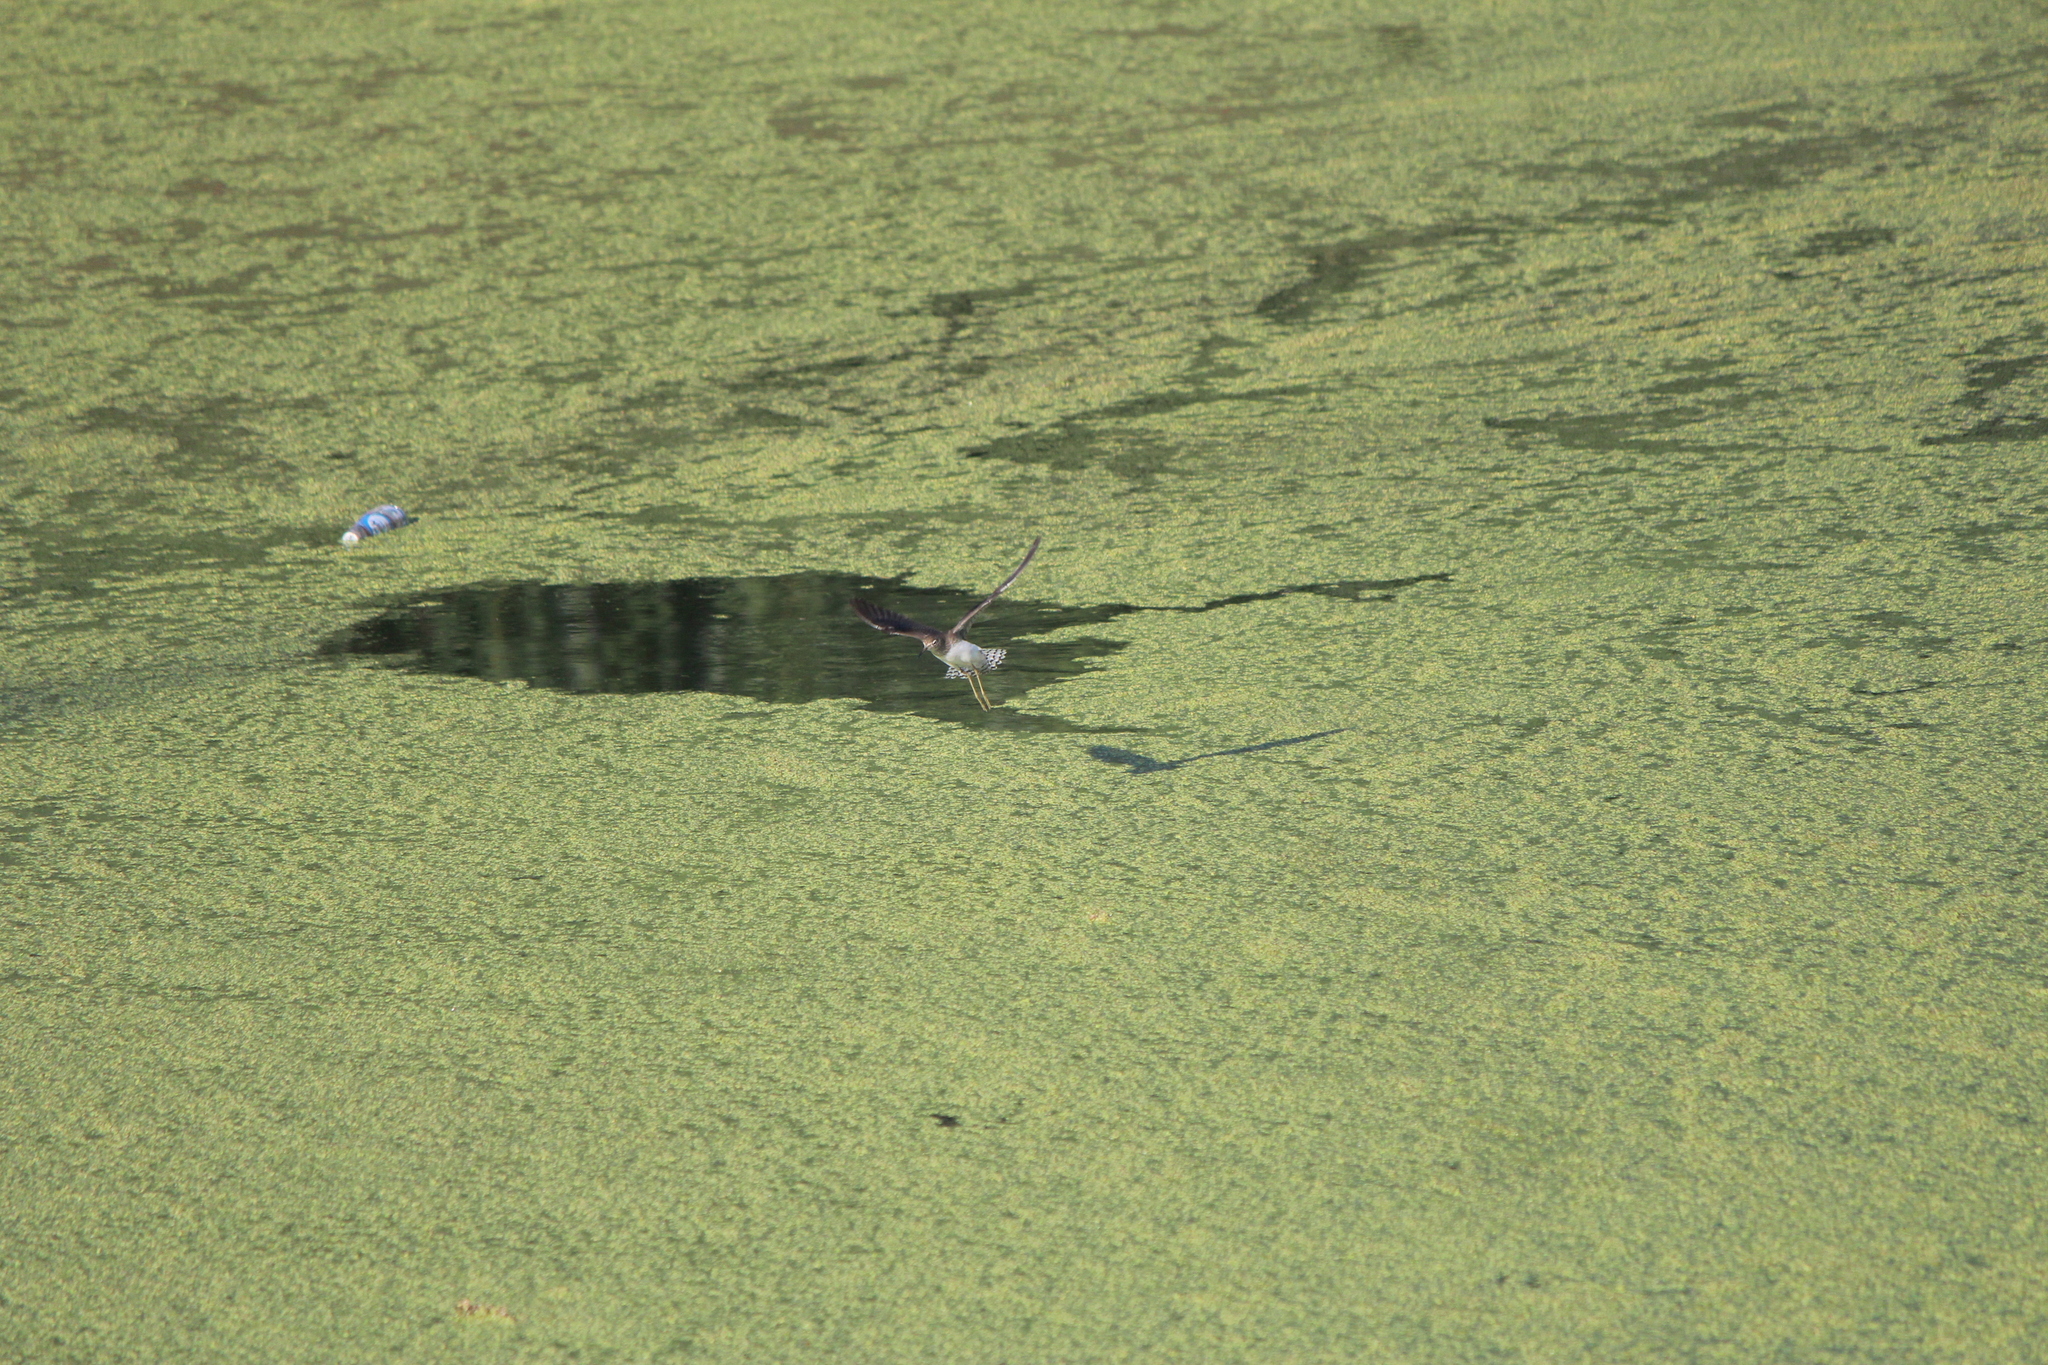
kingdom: Animalia
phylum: Chordata
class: Aves
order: Charadriiformes
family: Scolopacidae
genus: Tringa
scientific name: Tringa solitaria
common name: Solitary sandpiper
